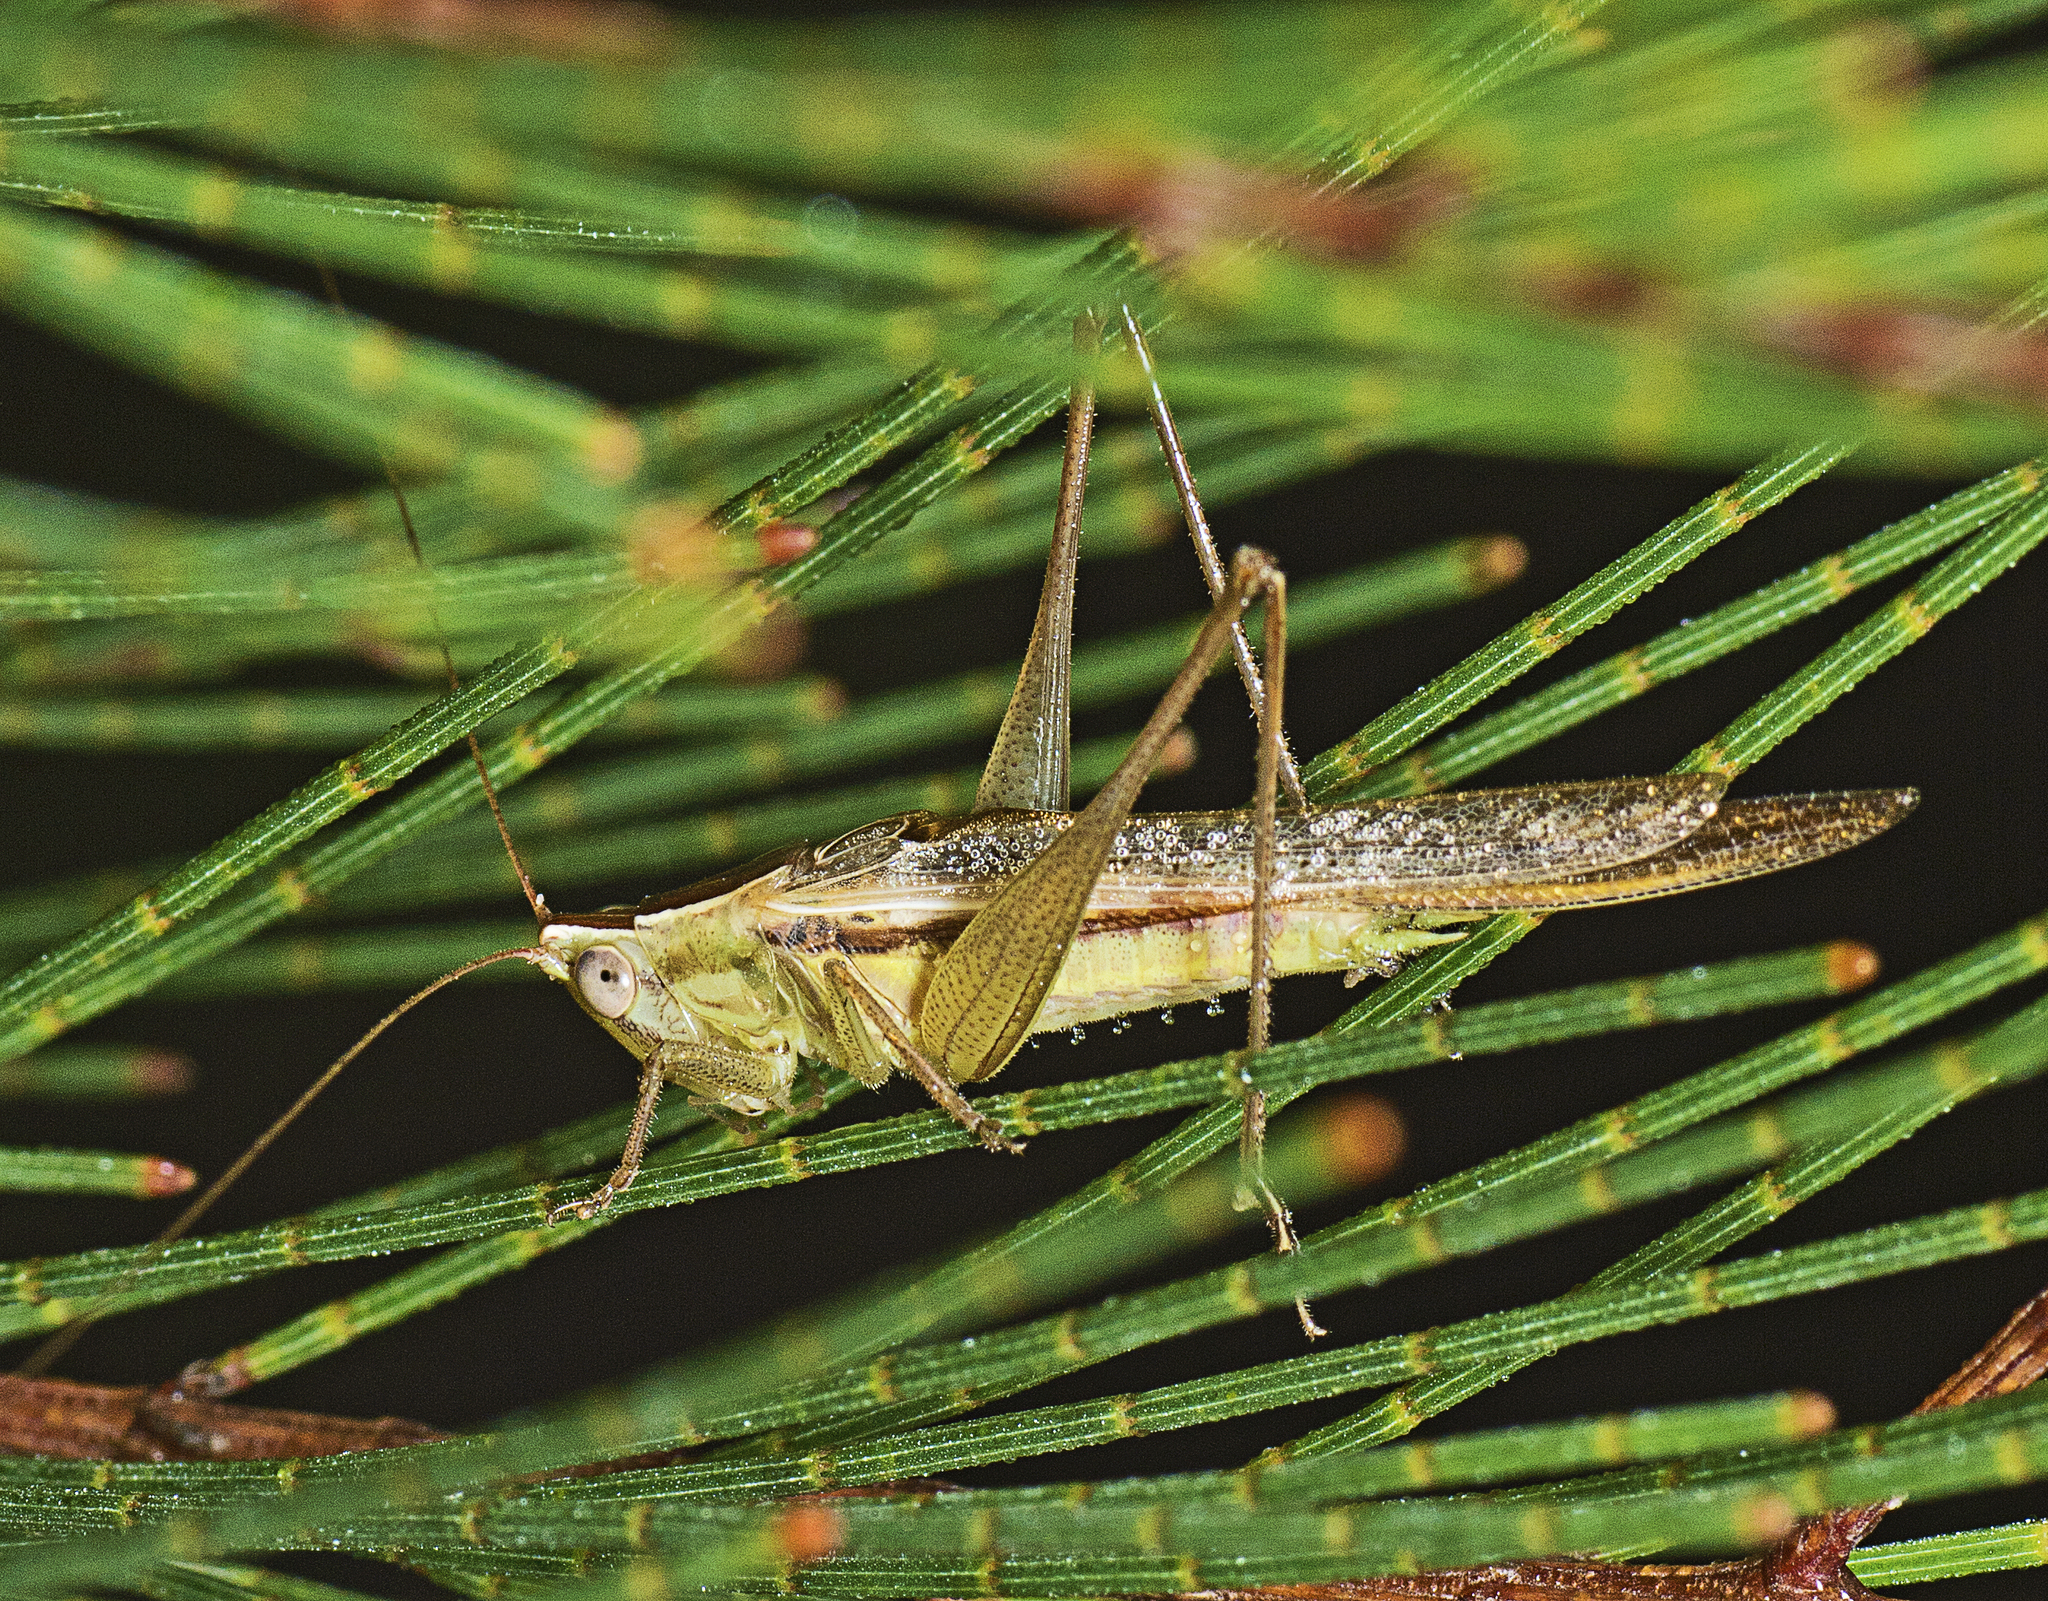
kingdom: Animalia
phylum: Arthropoda
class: Insecta
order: Orthoptera
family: Tettigoniidae
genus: Conocephalus
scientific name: Conocephalus upoluensis
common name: Upolu meadow katydid
